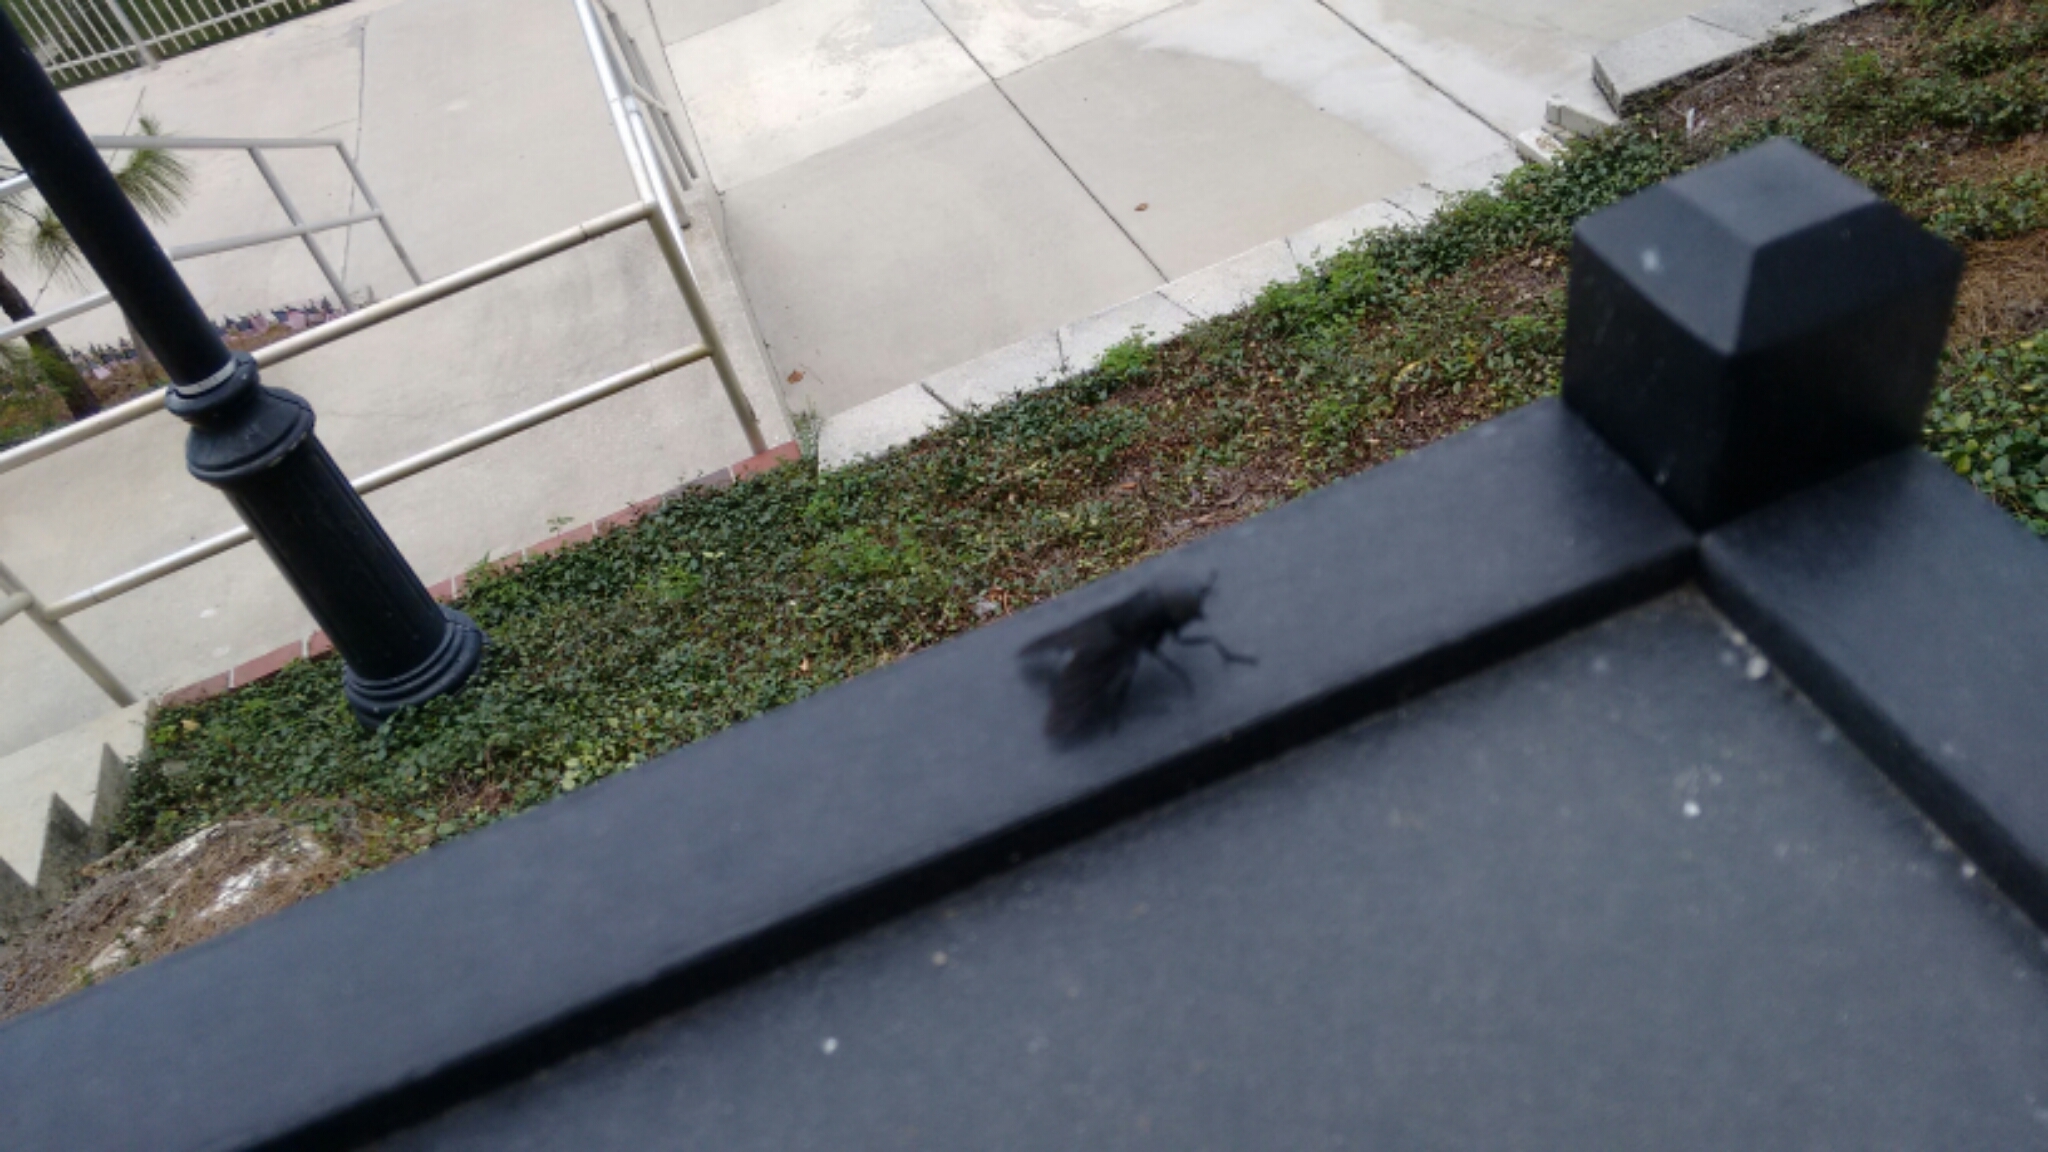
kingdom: Animalia
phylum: Arthropoda
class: Insecta
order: Diptera
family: Tabanidae
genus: Tabanus
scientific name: Tabanus atratus
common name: Black horse fly
